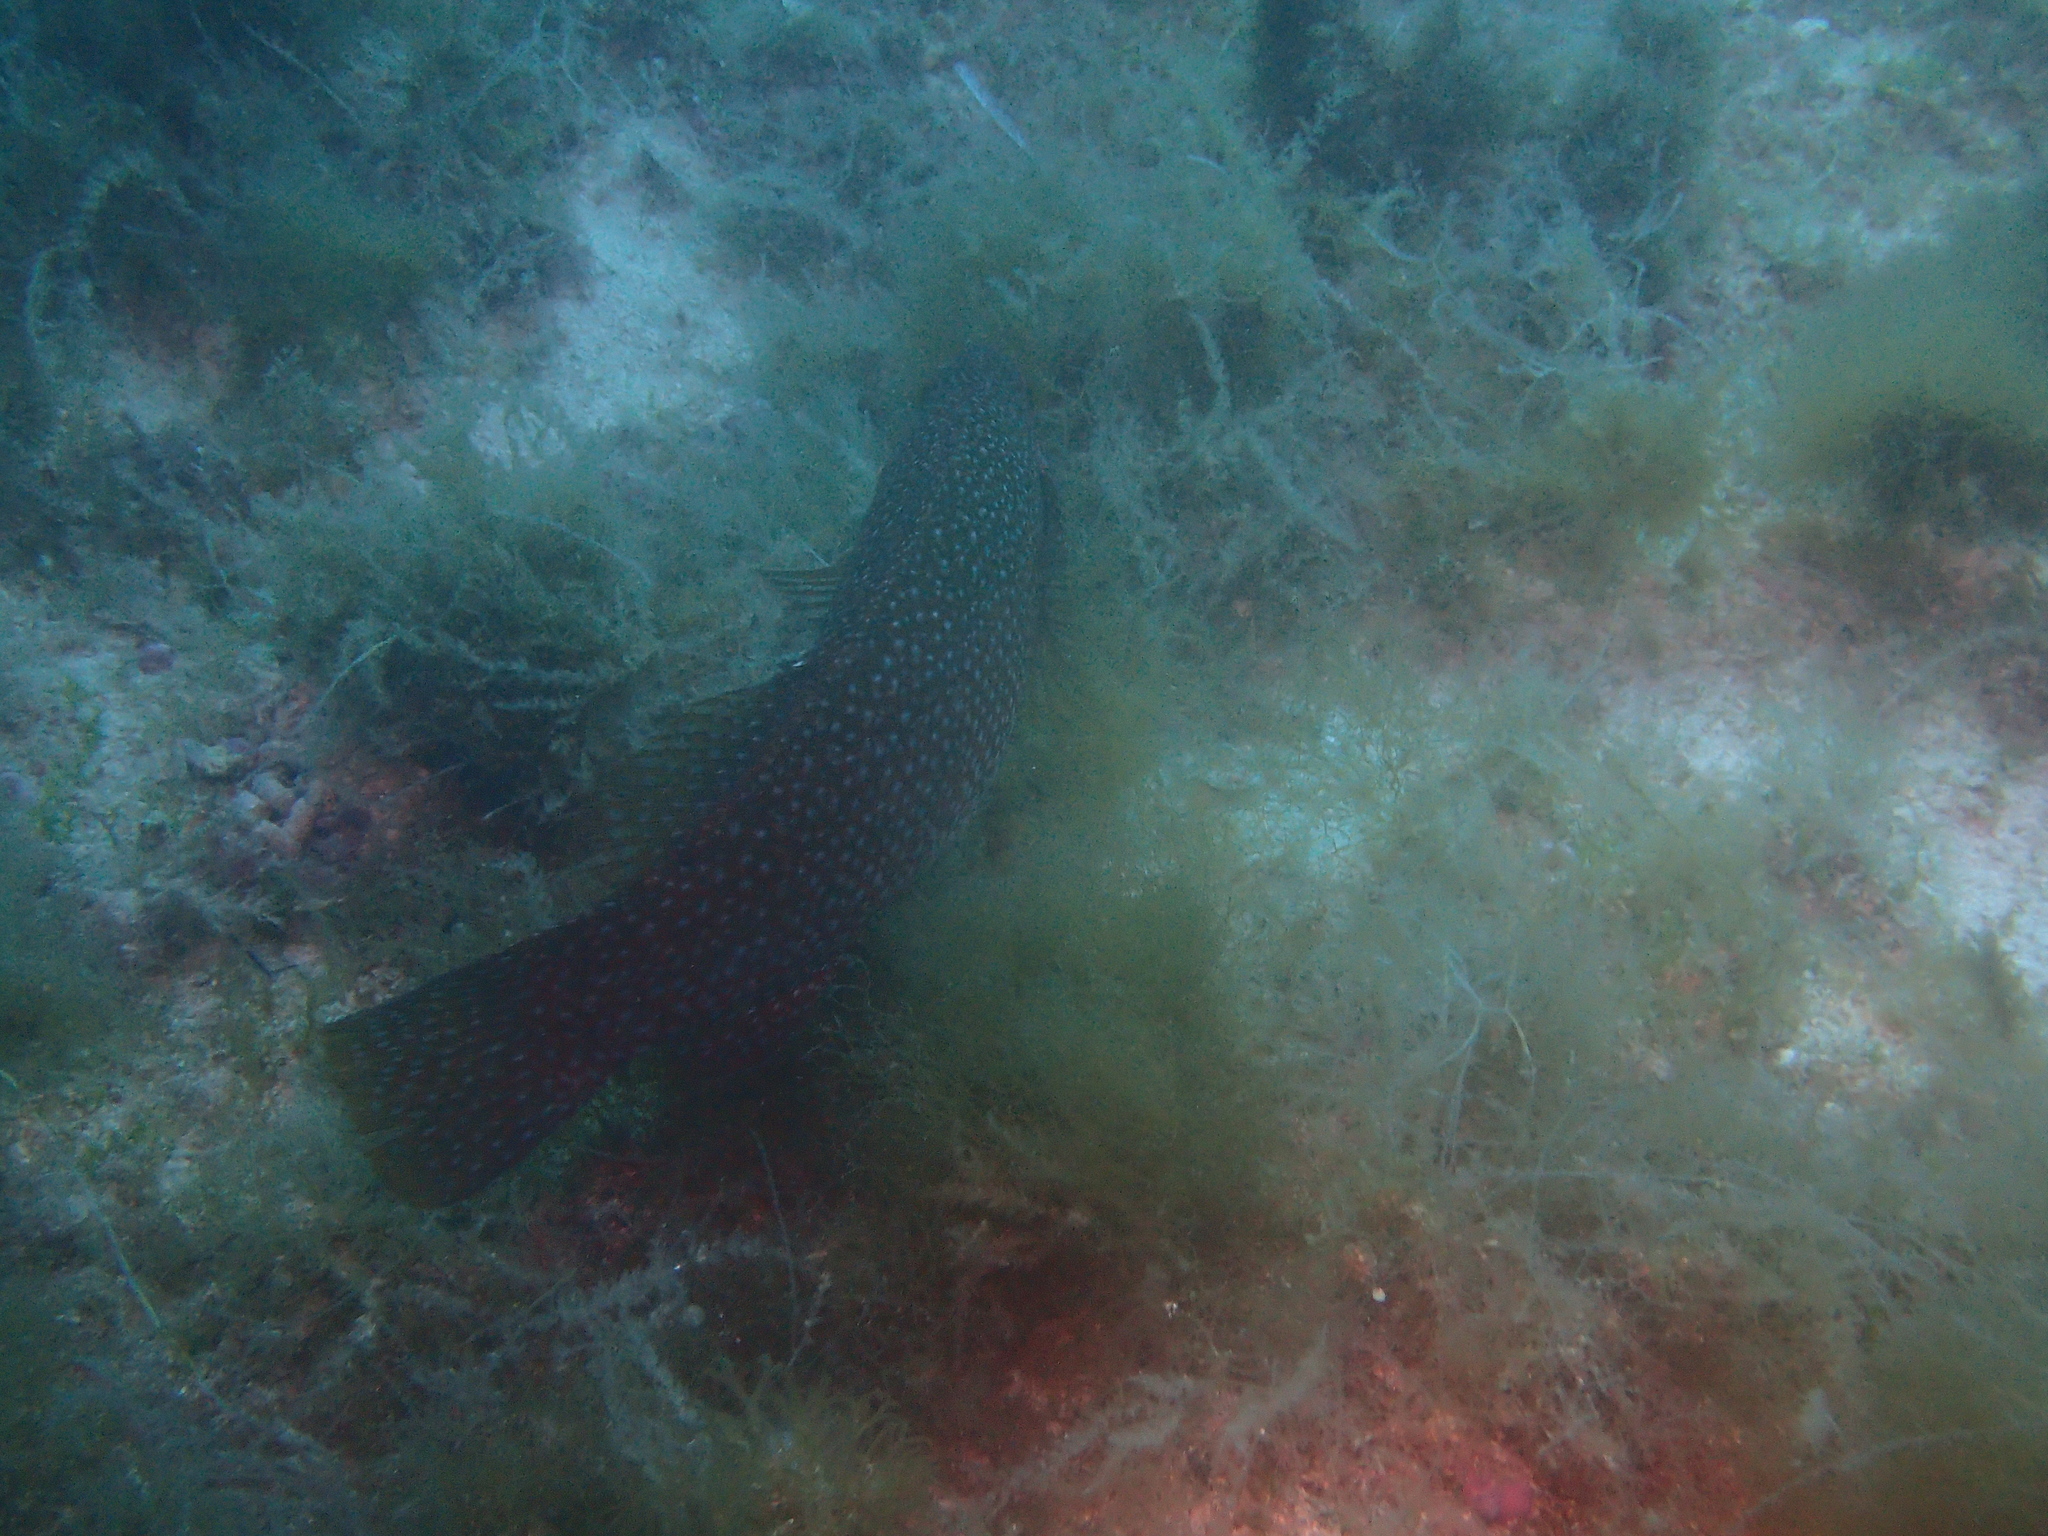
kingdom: Animalia
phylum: Chordata
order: Perciformes
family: Labridae
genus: Labrus
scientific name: Labrus viridis
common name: Green wrasse
